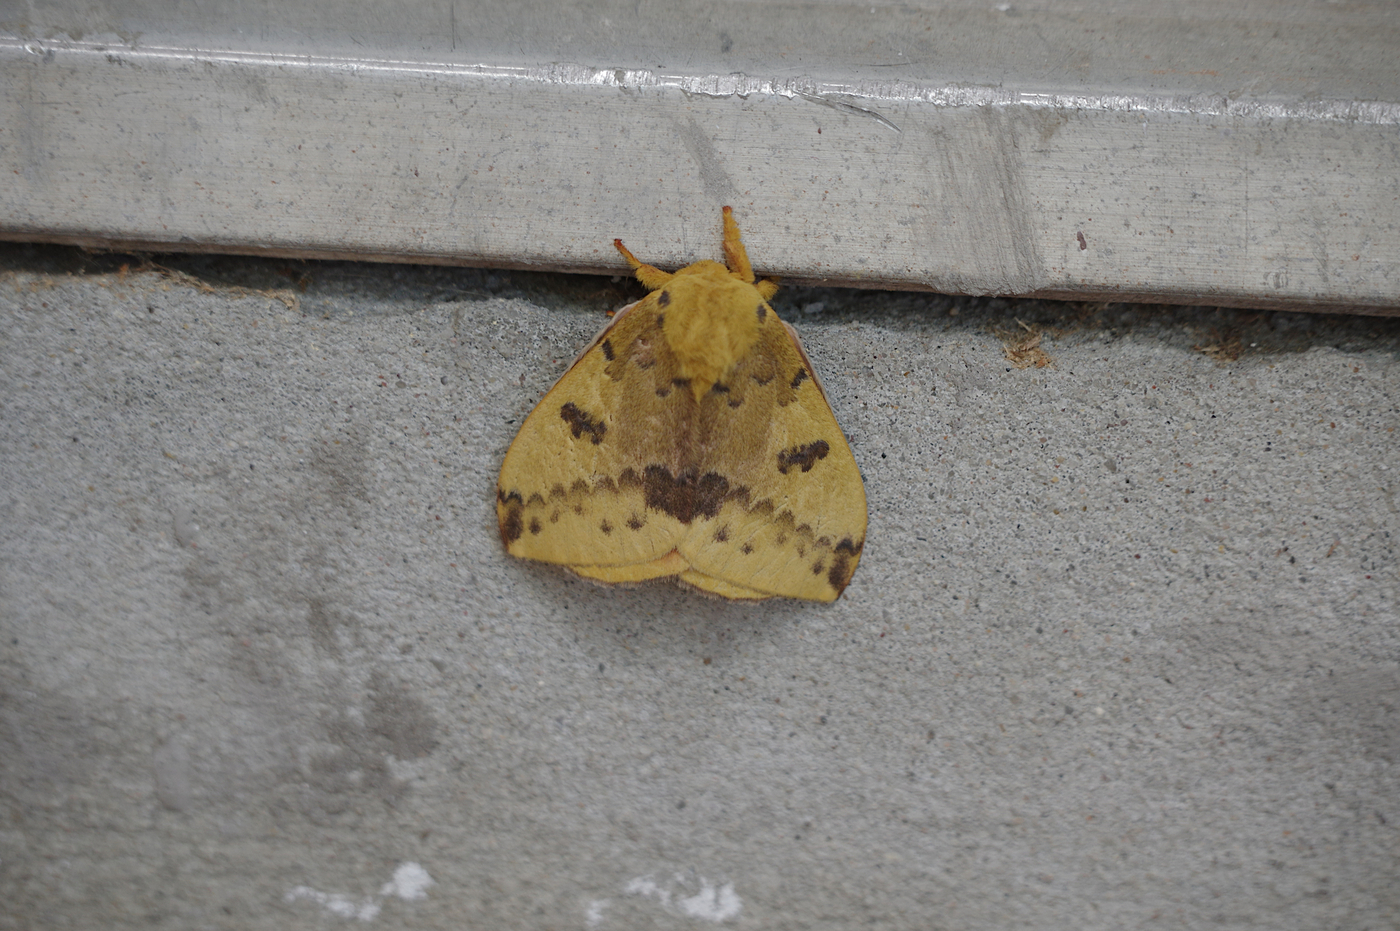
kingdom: Animalia
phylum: Arthropoda
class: Insecta
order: Lepidoptera
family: Saturniidae
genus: Automeris
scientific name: Automeris io
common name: Io moth
